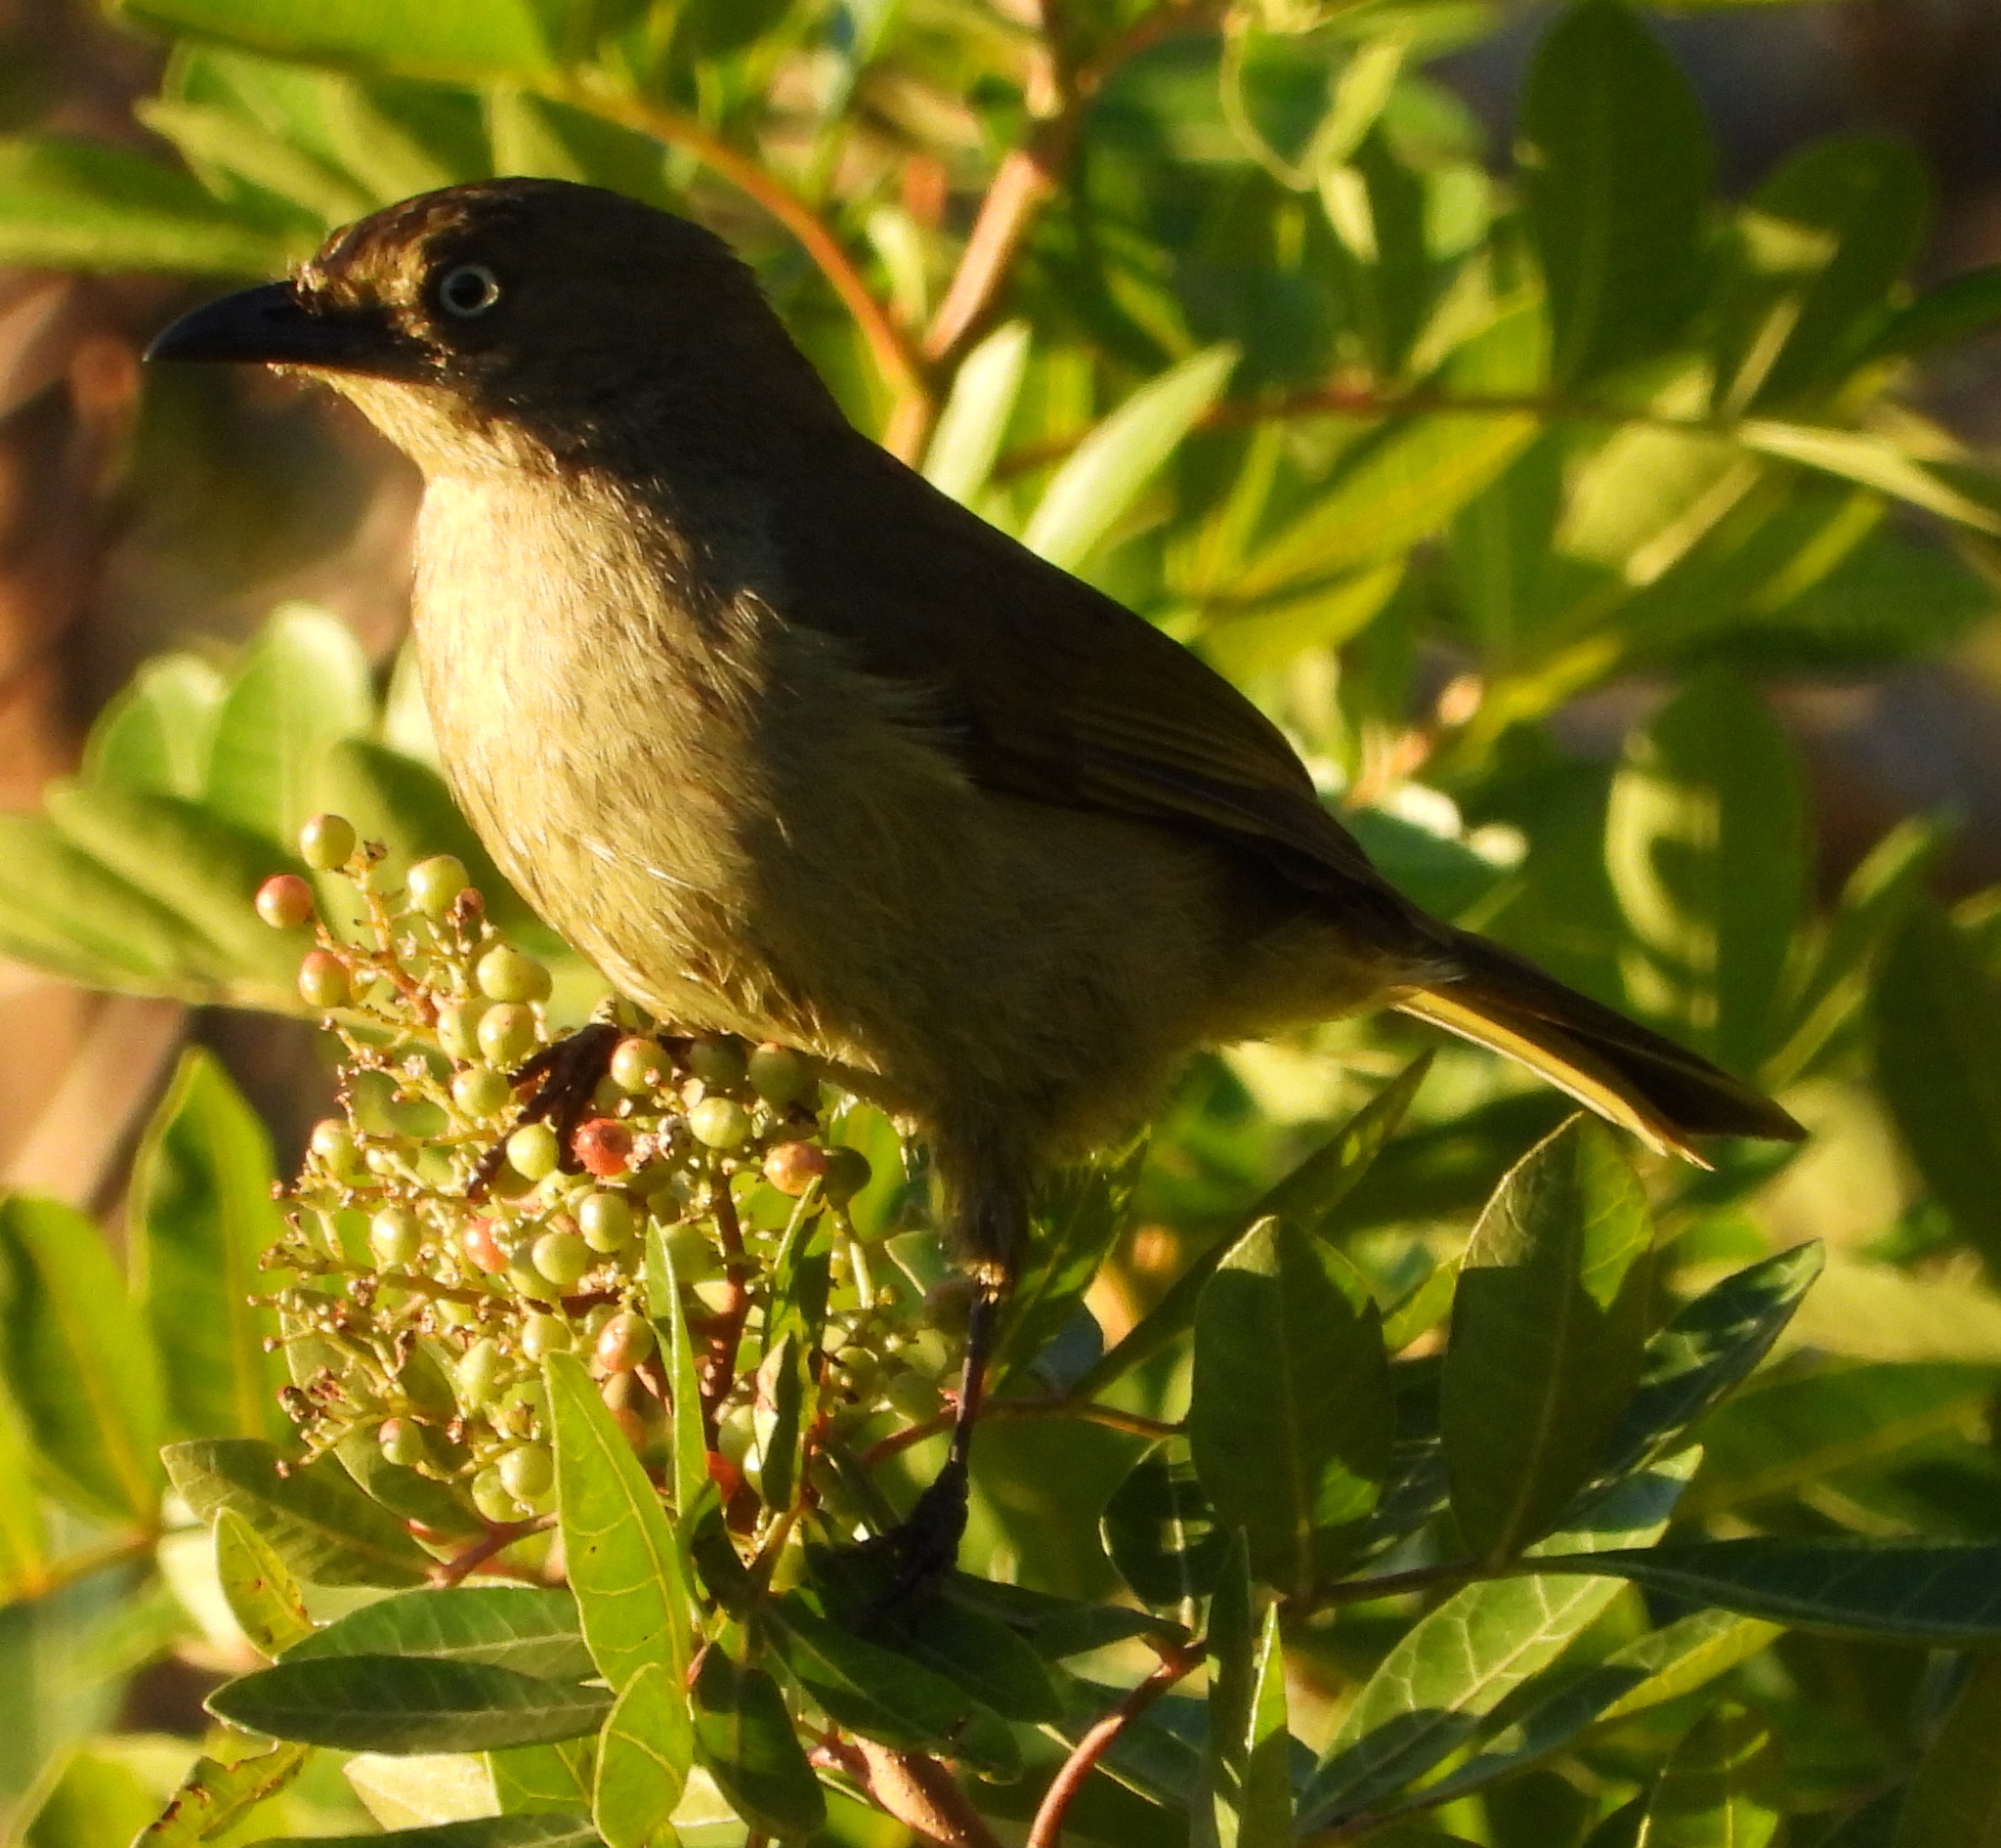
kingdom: Animalia
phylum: Chordata
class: Aves
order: Passeriformes
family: Pycnonotidae
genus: Andropadus
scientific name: Andropadus importunus
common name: Sombre greenbul
